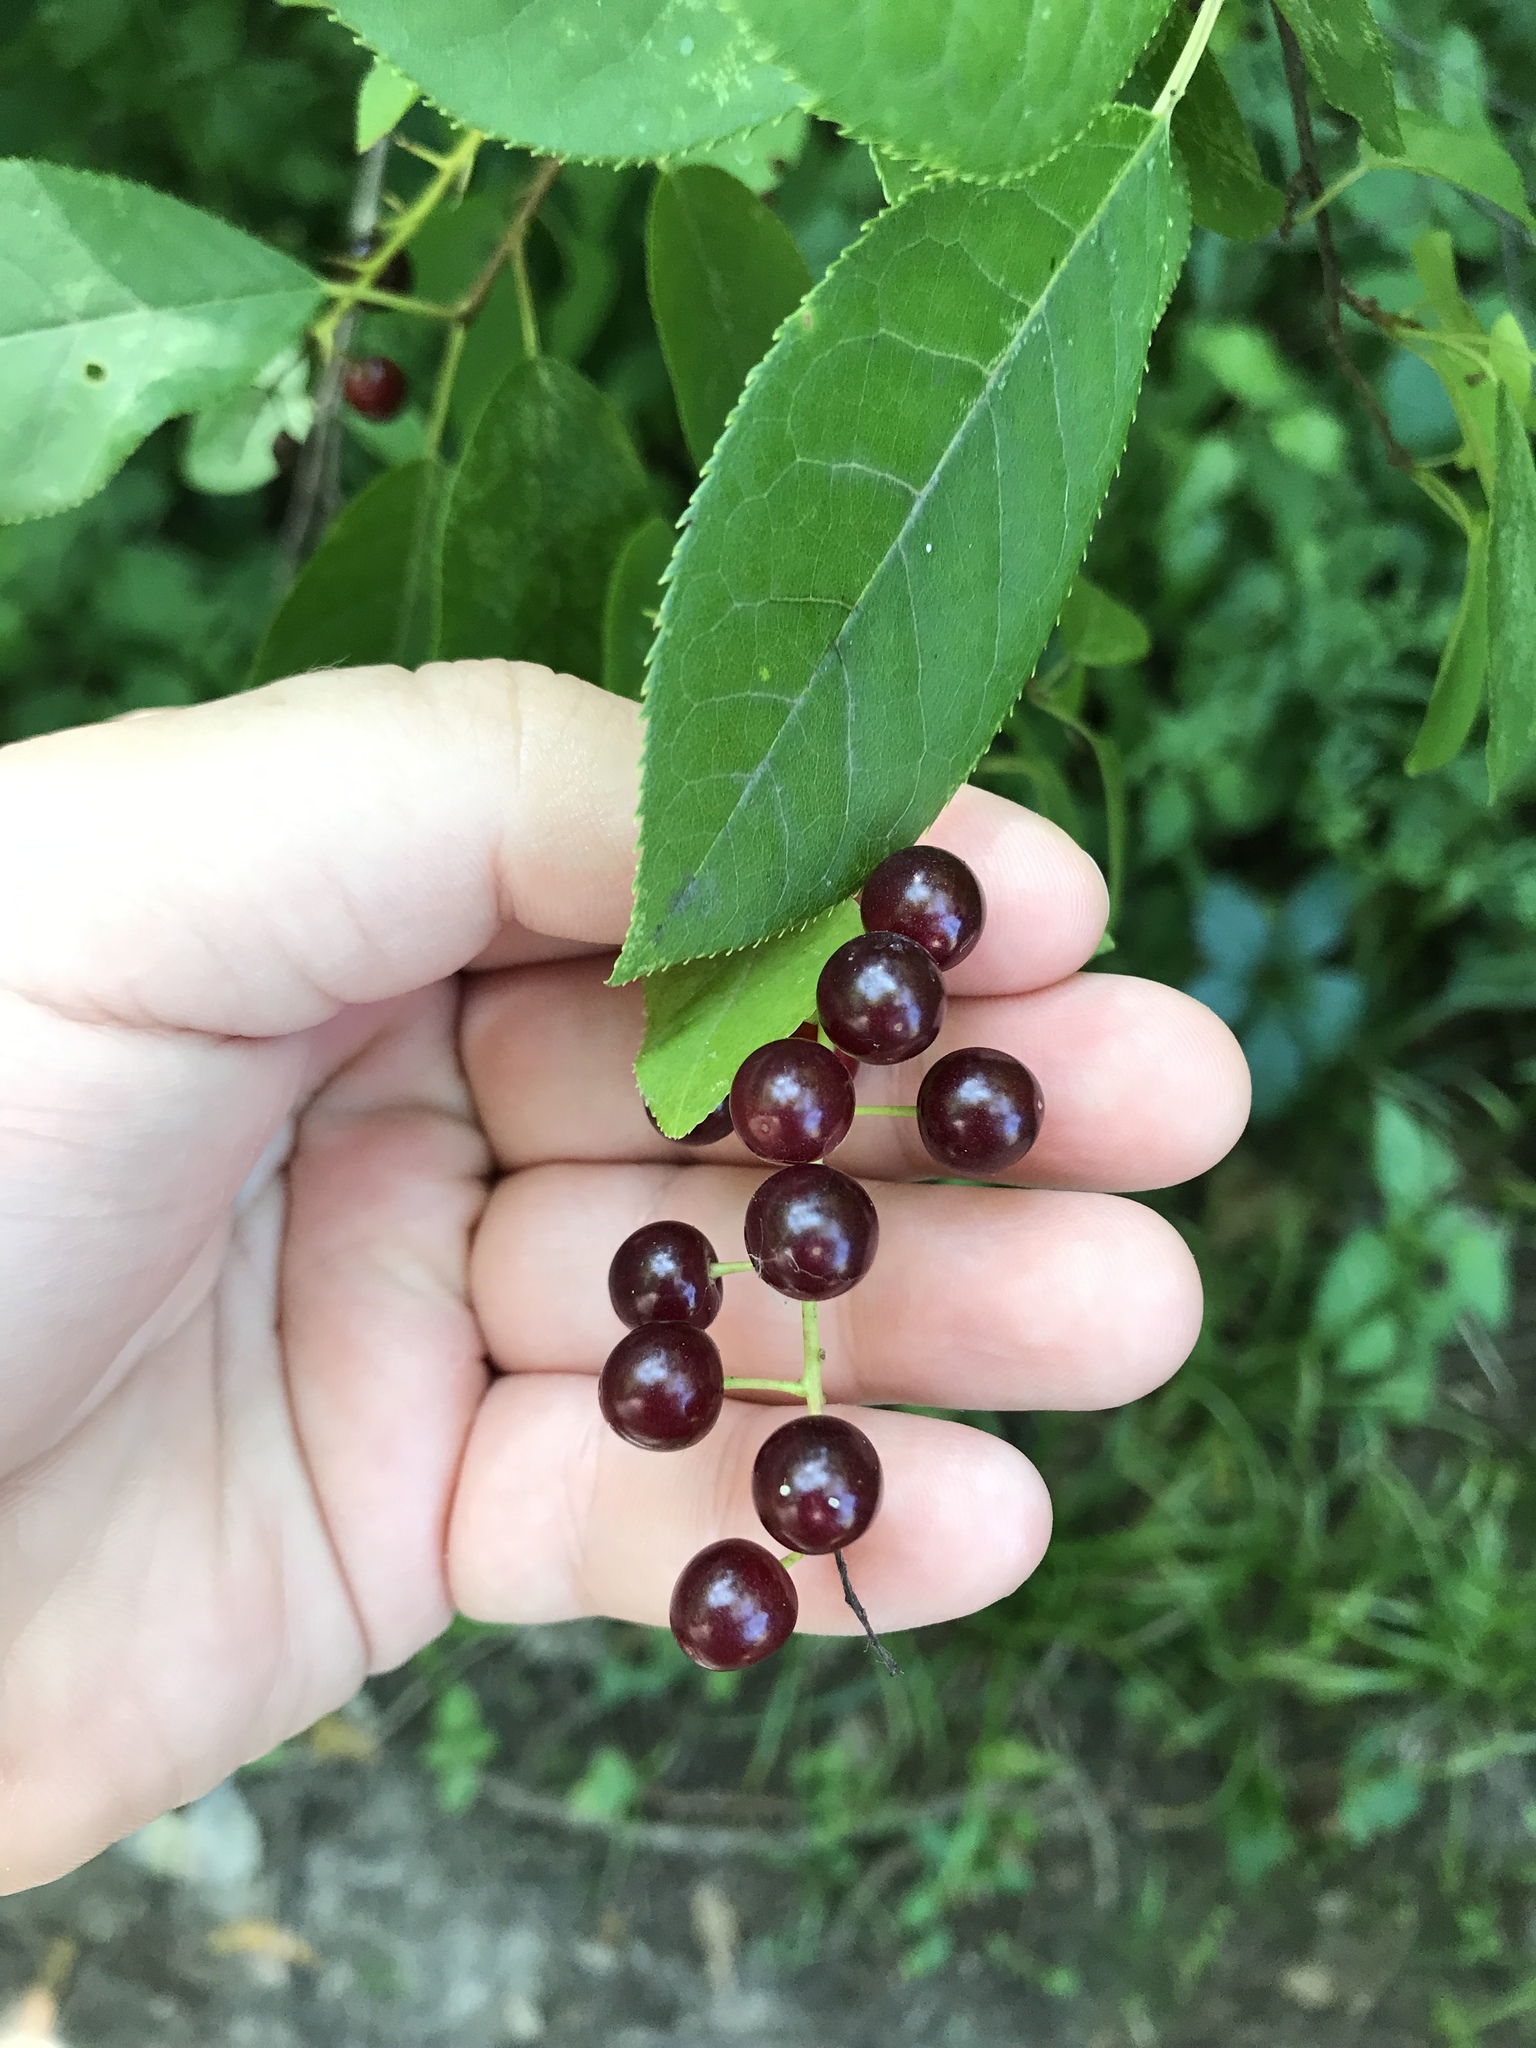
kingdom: Plantae
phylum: Tracheophyta
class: Magnoliopsida
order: Rosales
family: Rosaceae
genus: Prunus
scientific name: Prunus virginiana
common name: Chokecherry
